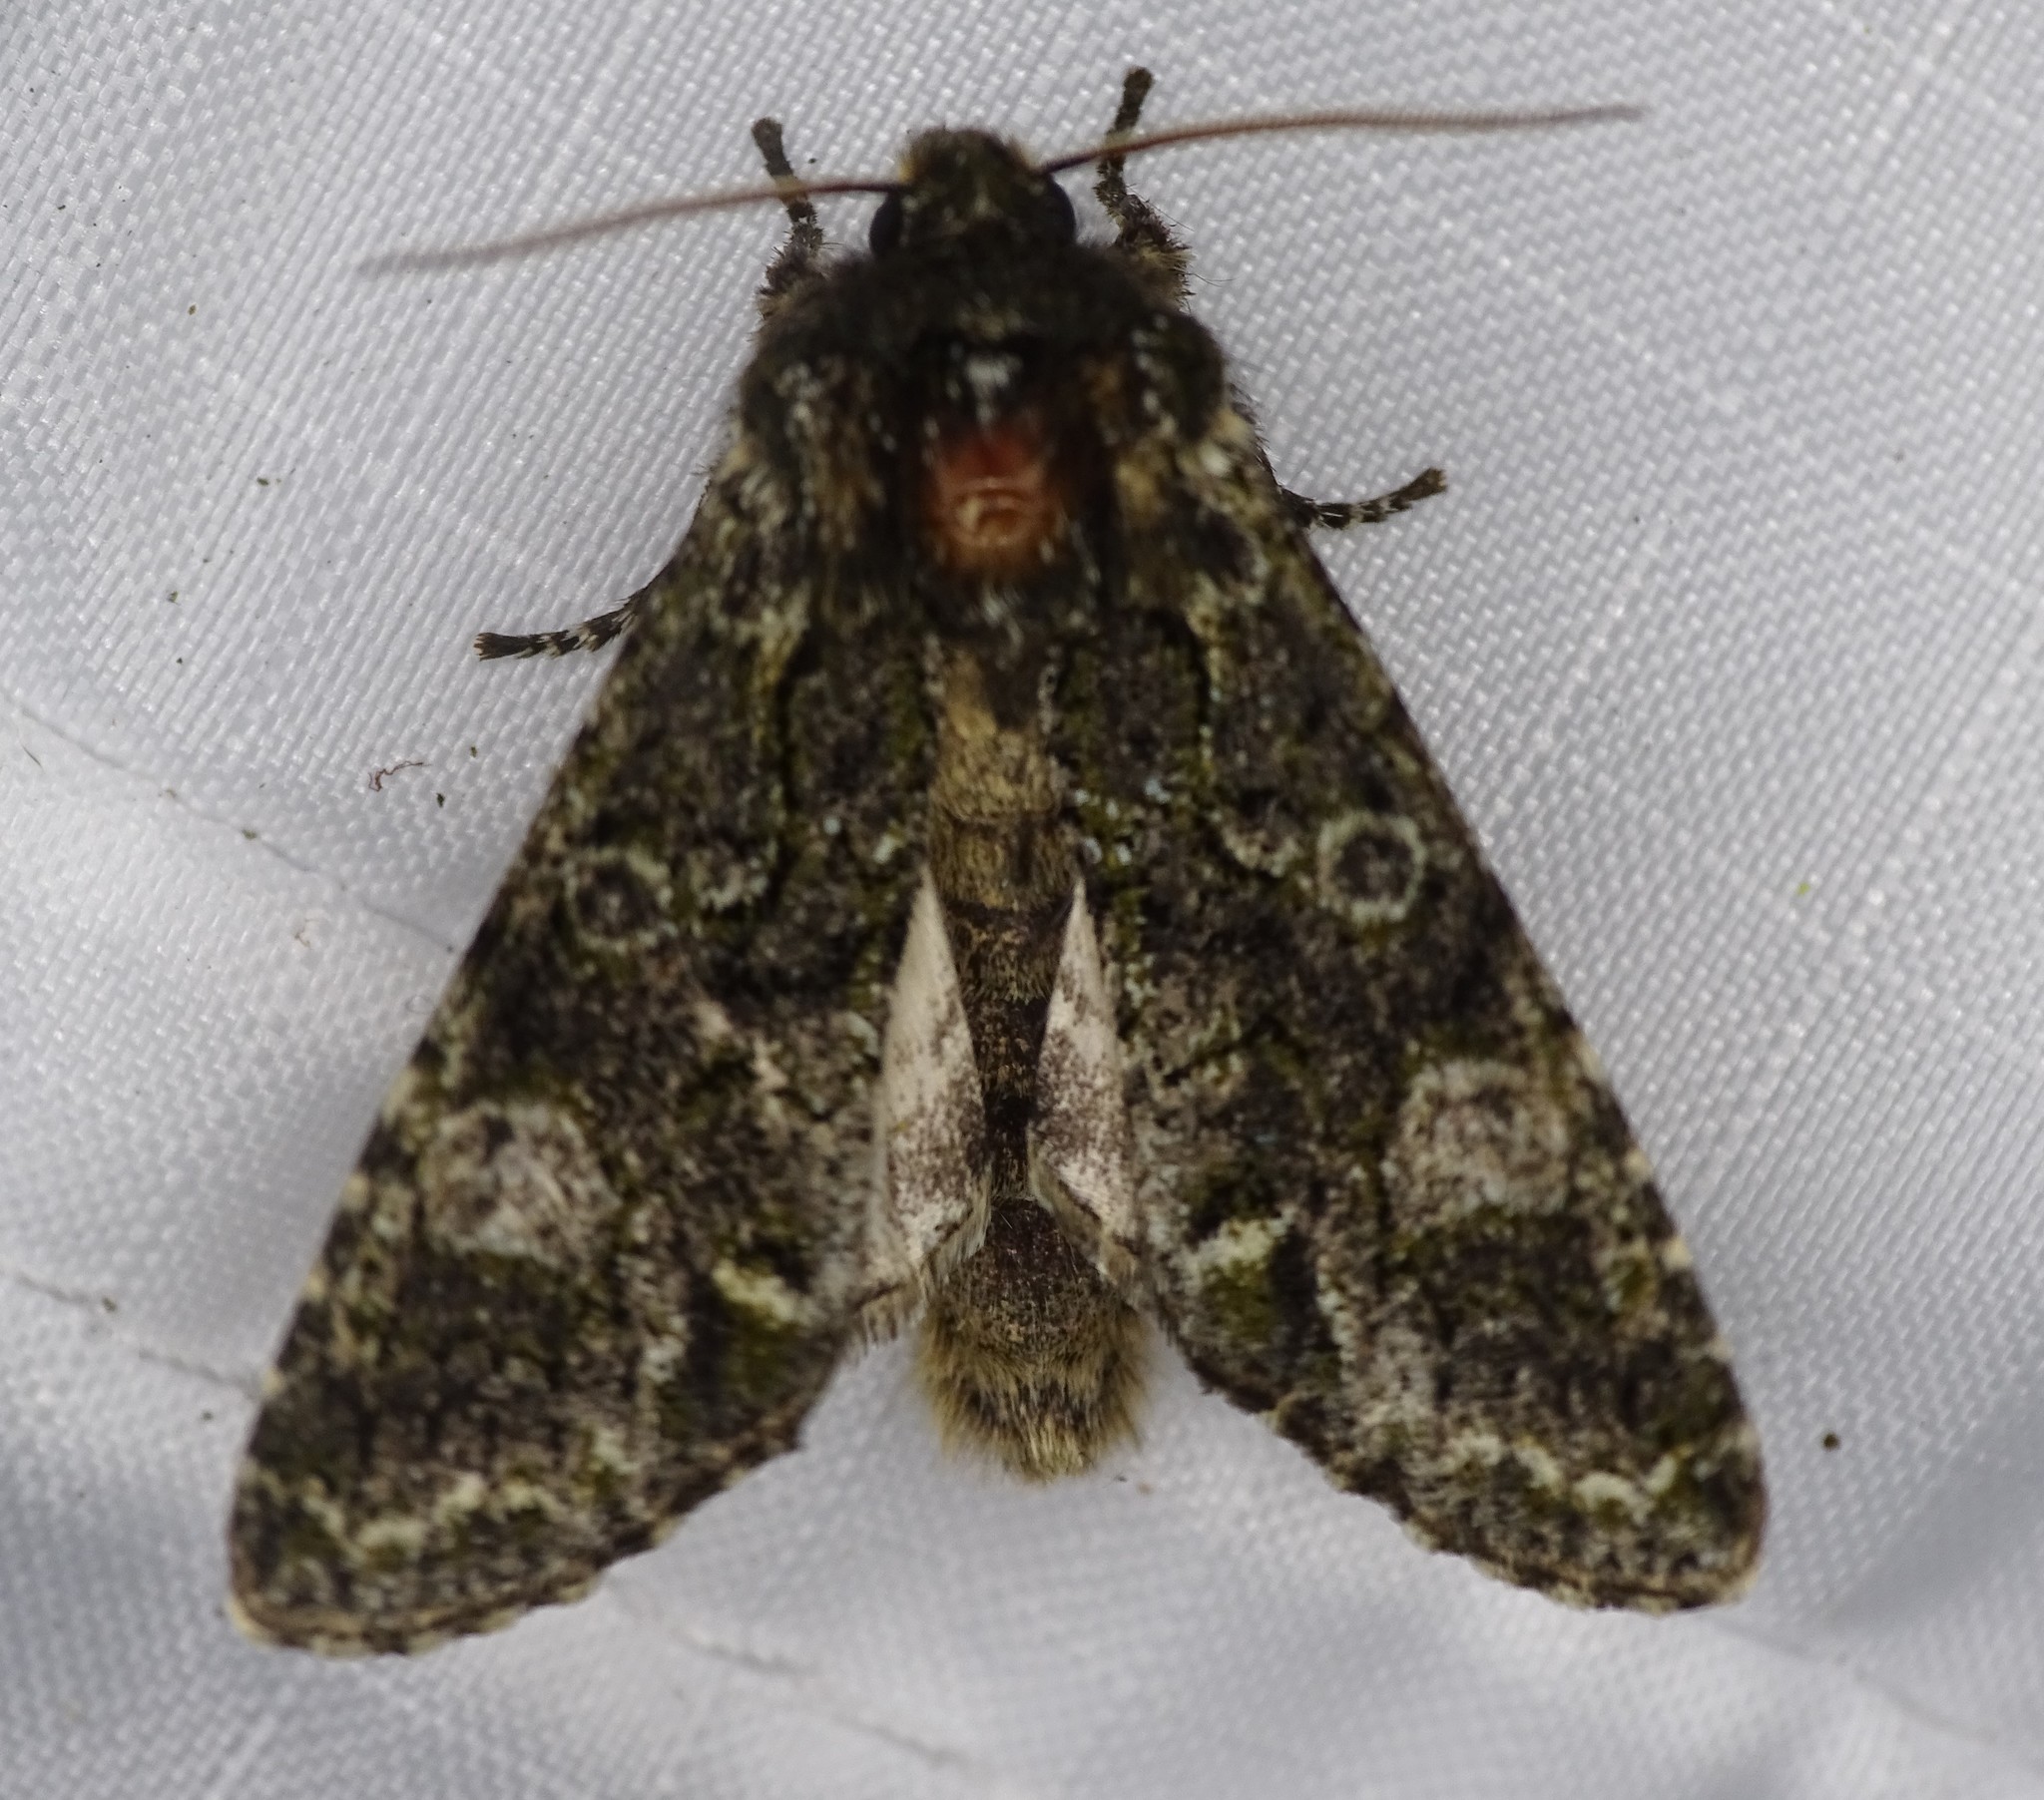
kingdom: Animalia
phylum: Arthropoda
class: Insecta
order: Lepidoptera
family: Noctuidae
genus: Psaphida
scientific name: Psaphida grotei
